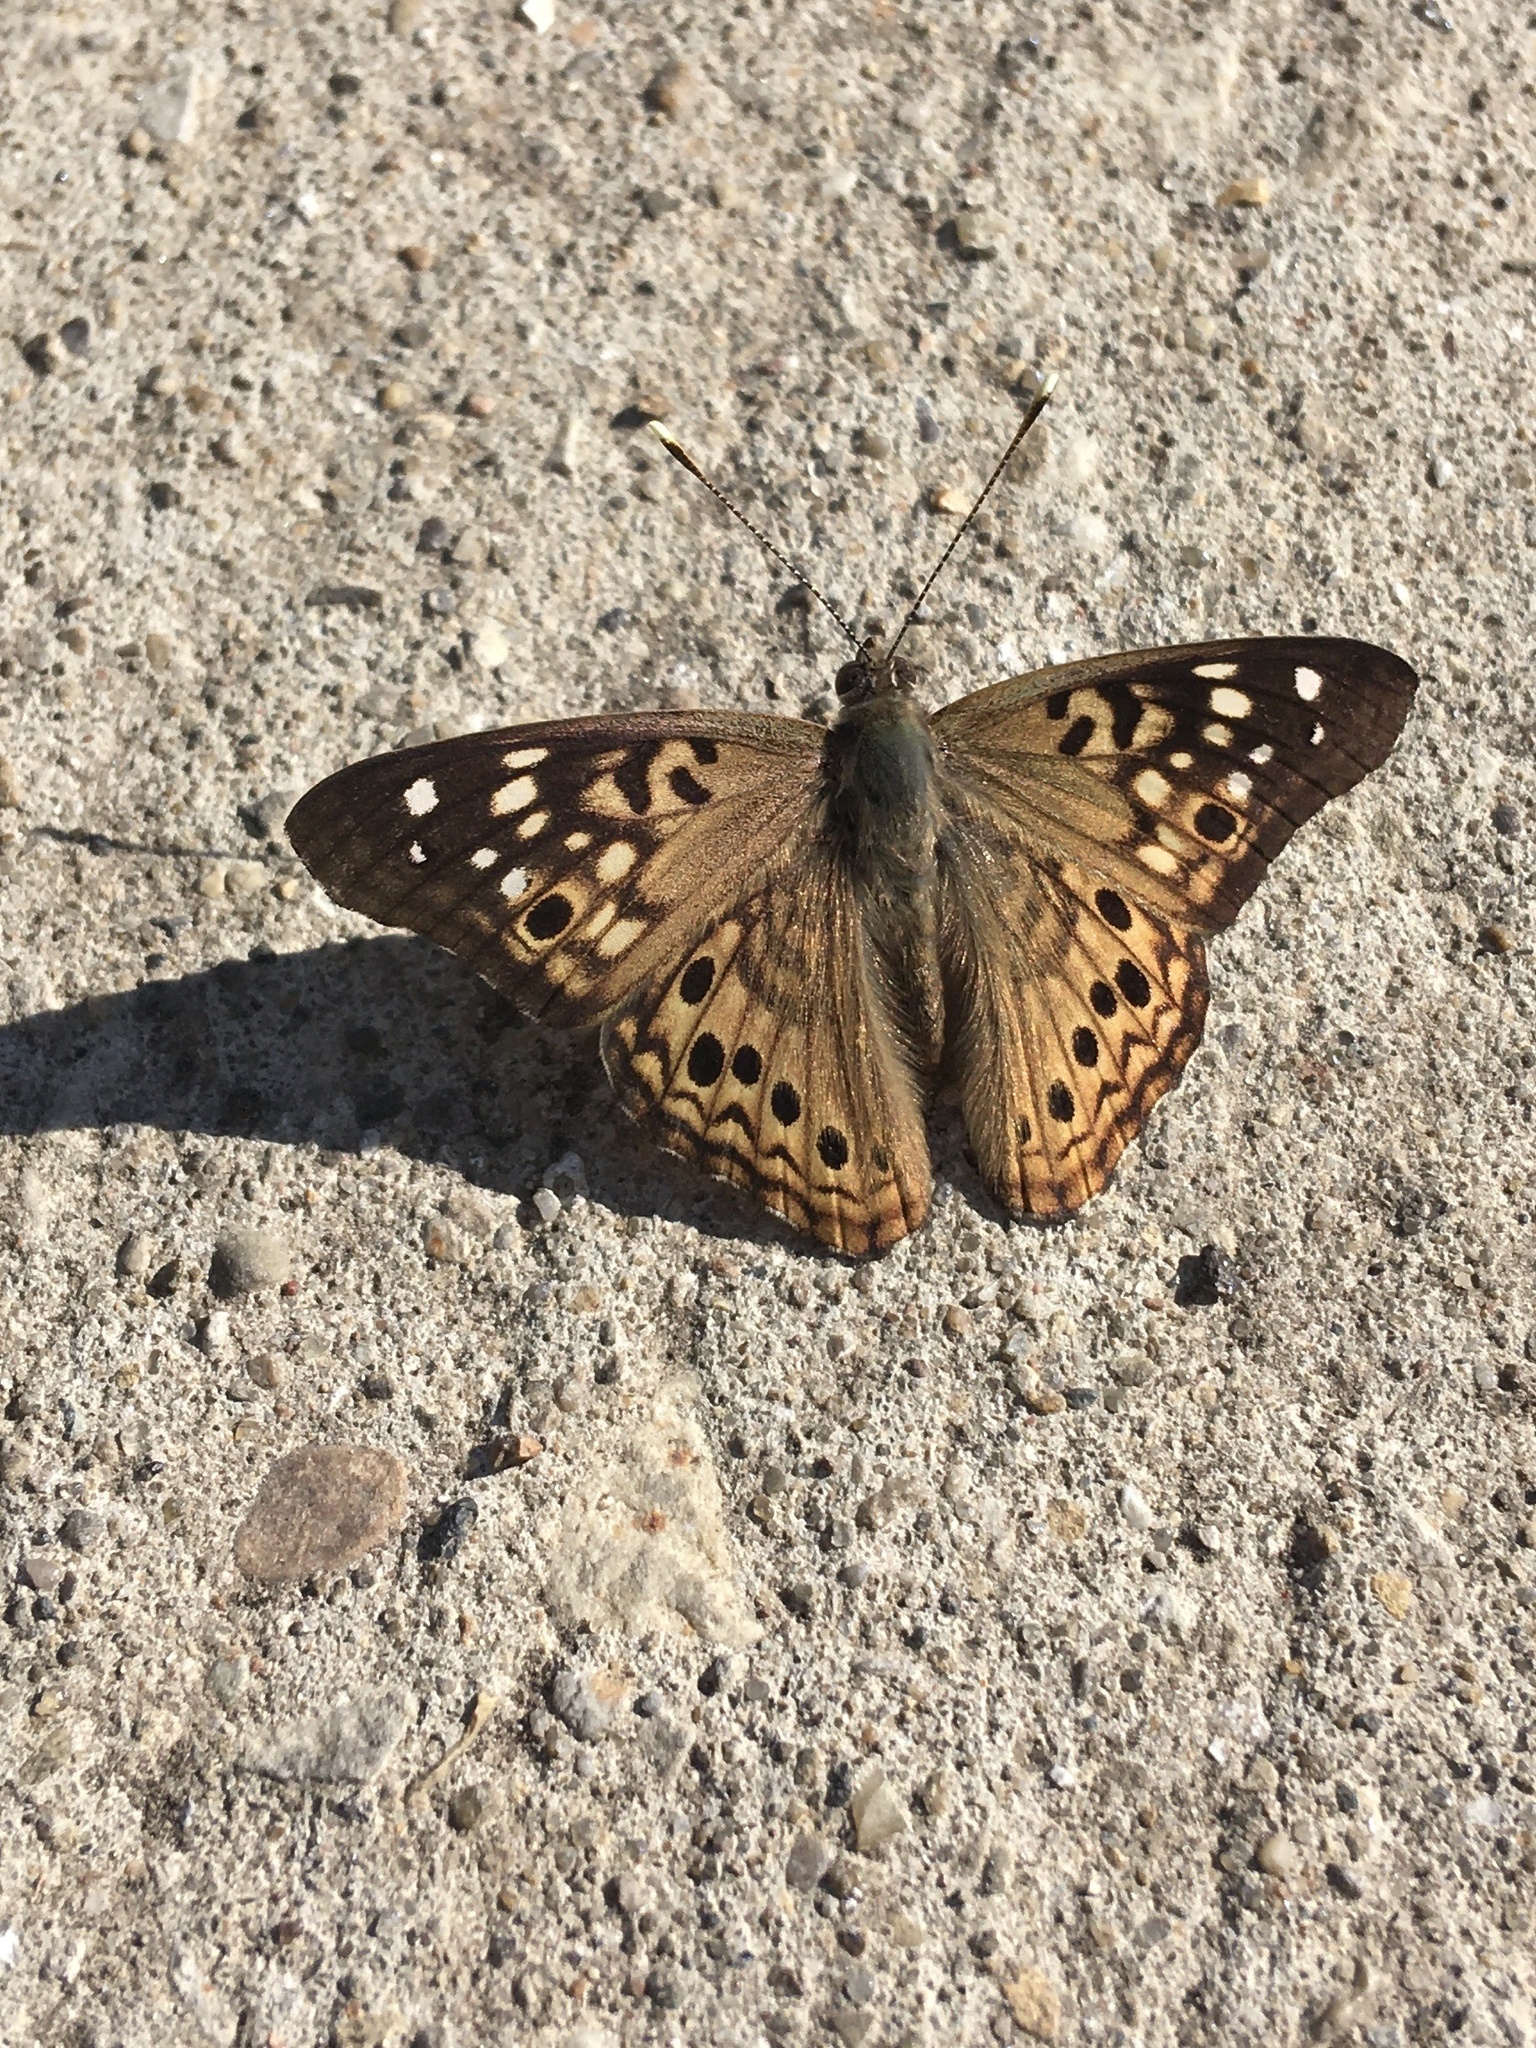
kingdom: Animalia
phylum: Arthropoda
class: Insecta
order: Lepidoptera
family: Nymphalidae
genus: Asterocampa
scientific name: Asterocampa celtis
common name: Hackberry emperor
